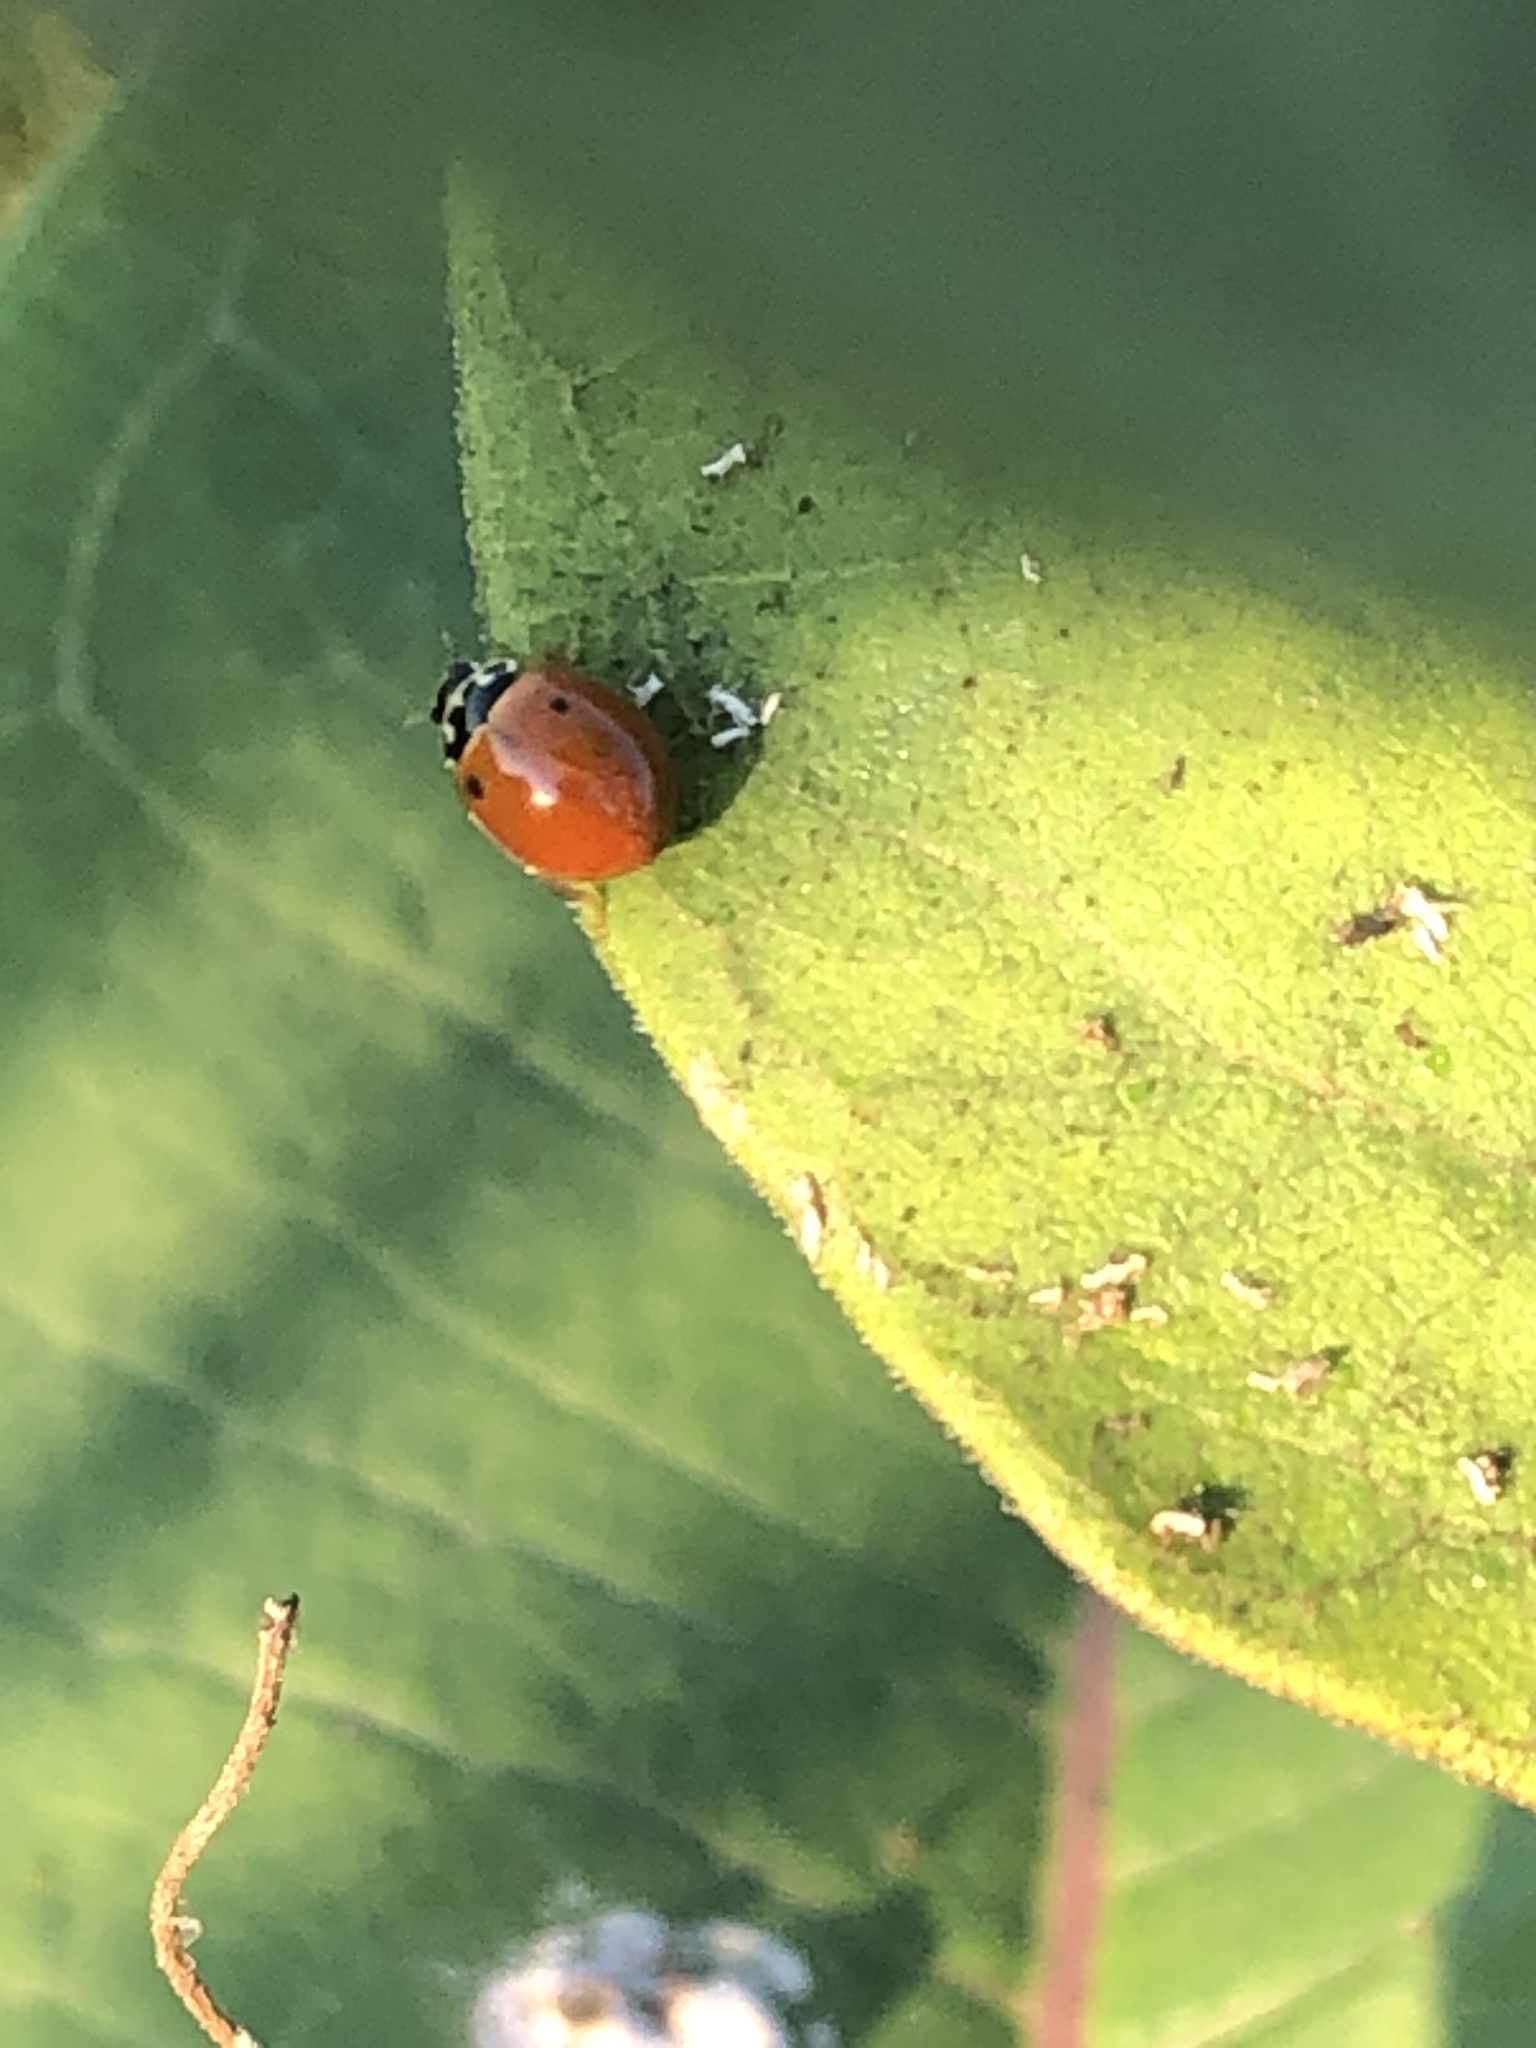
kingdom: Animalia
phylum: Arthropoda
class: Insecta
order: Coleoptera
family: Coccinellidae
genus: Cycloneda
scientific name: Cycloneda munda
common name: Polished lady beetle
